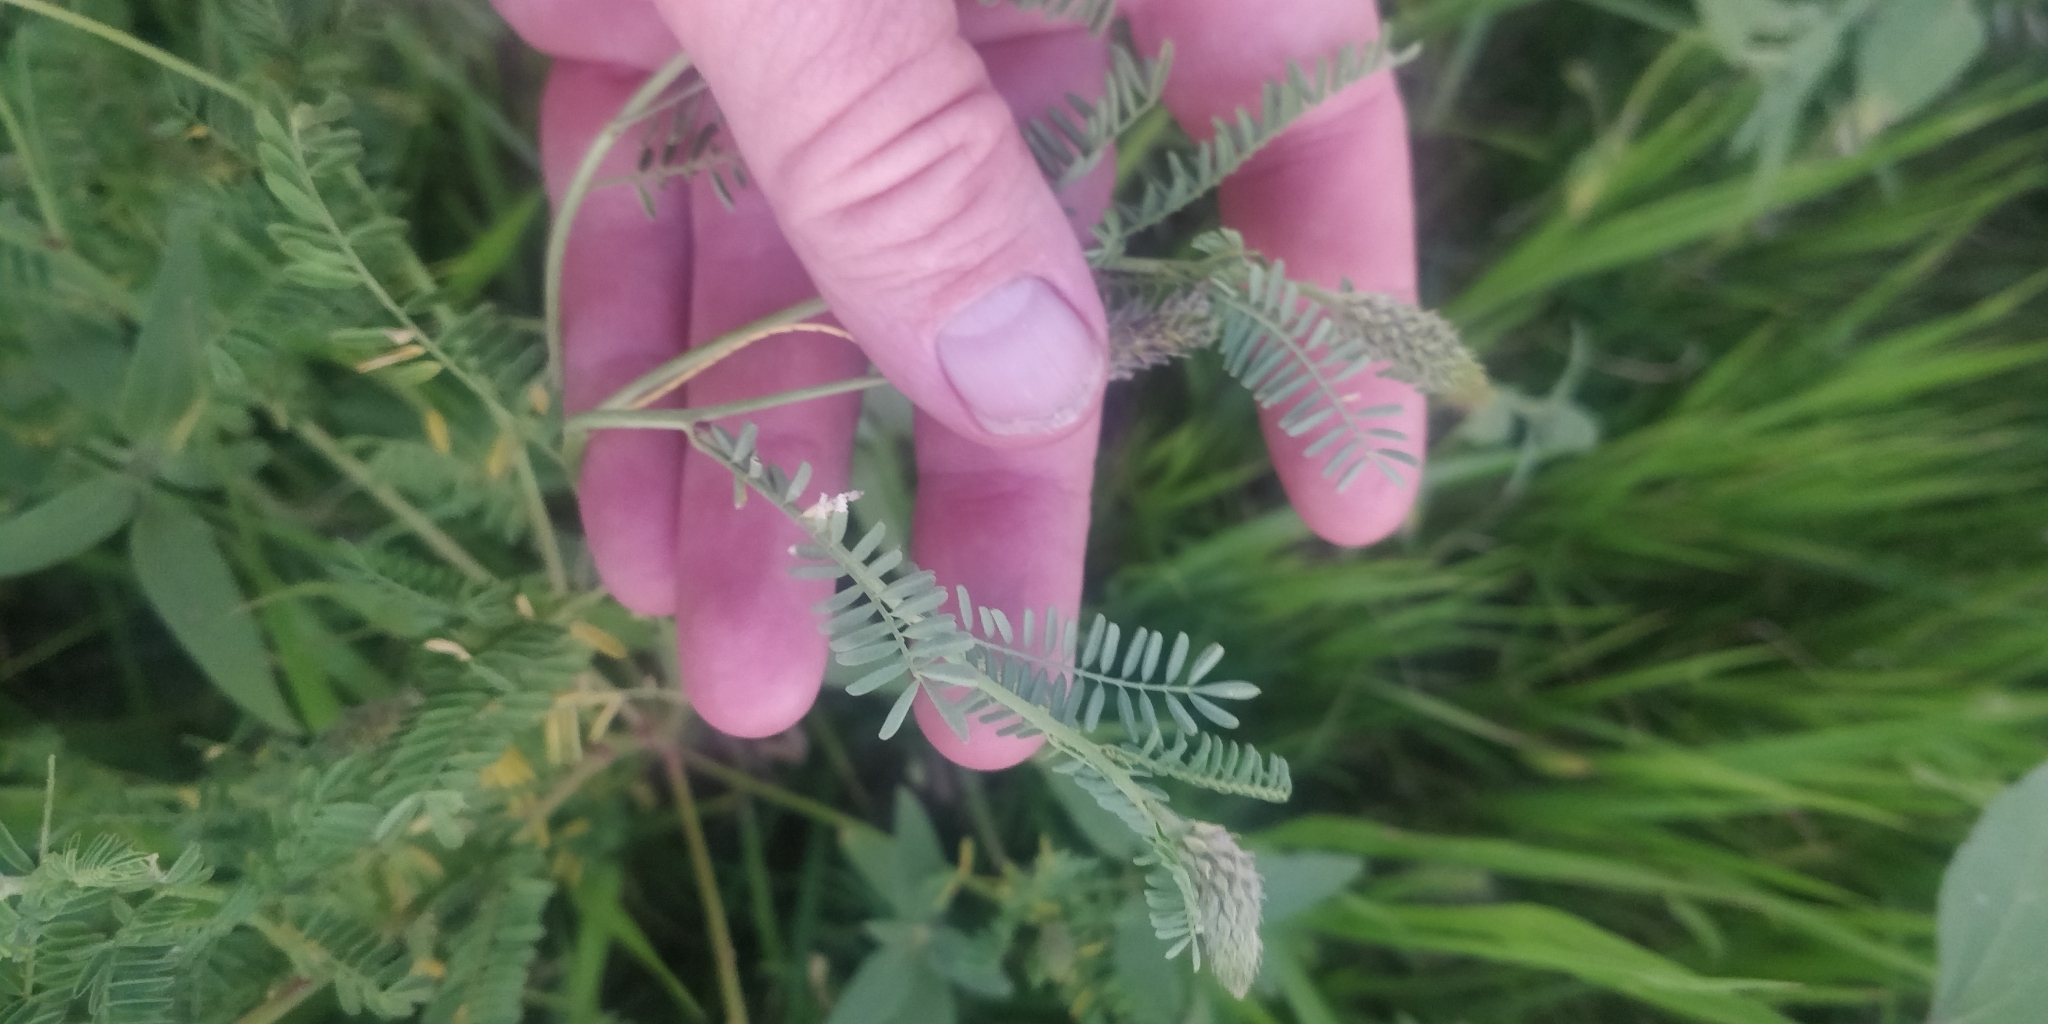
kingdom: Plantae
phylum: Tracheophyta
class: Magnoliopsida
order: Fabales
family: Fabaceae
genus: Dalea
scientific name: Dalea leporina
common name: Foxtail dalea
